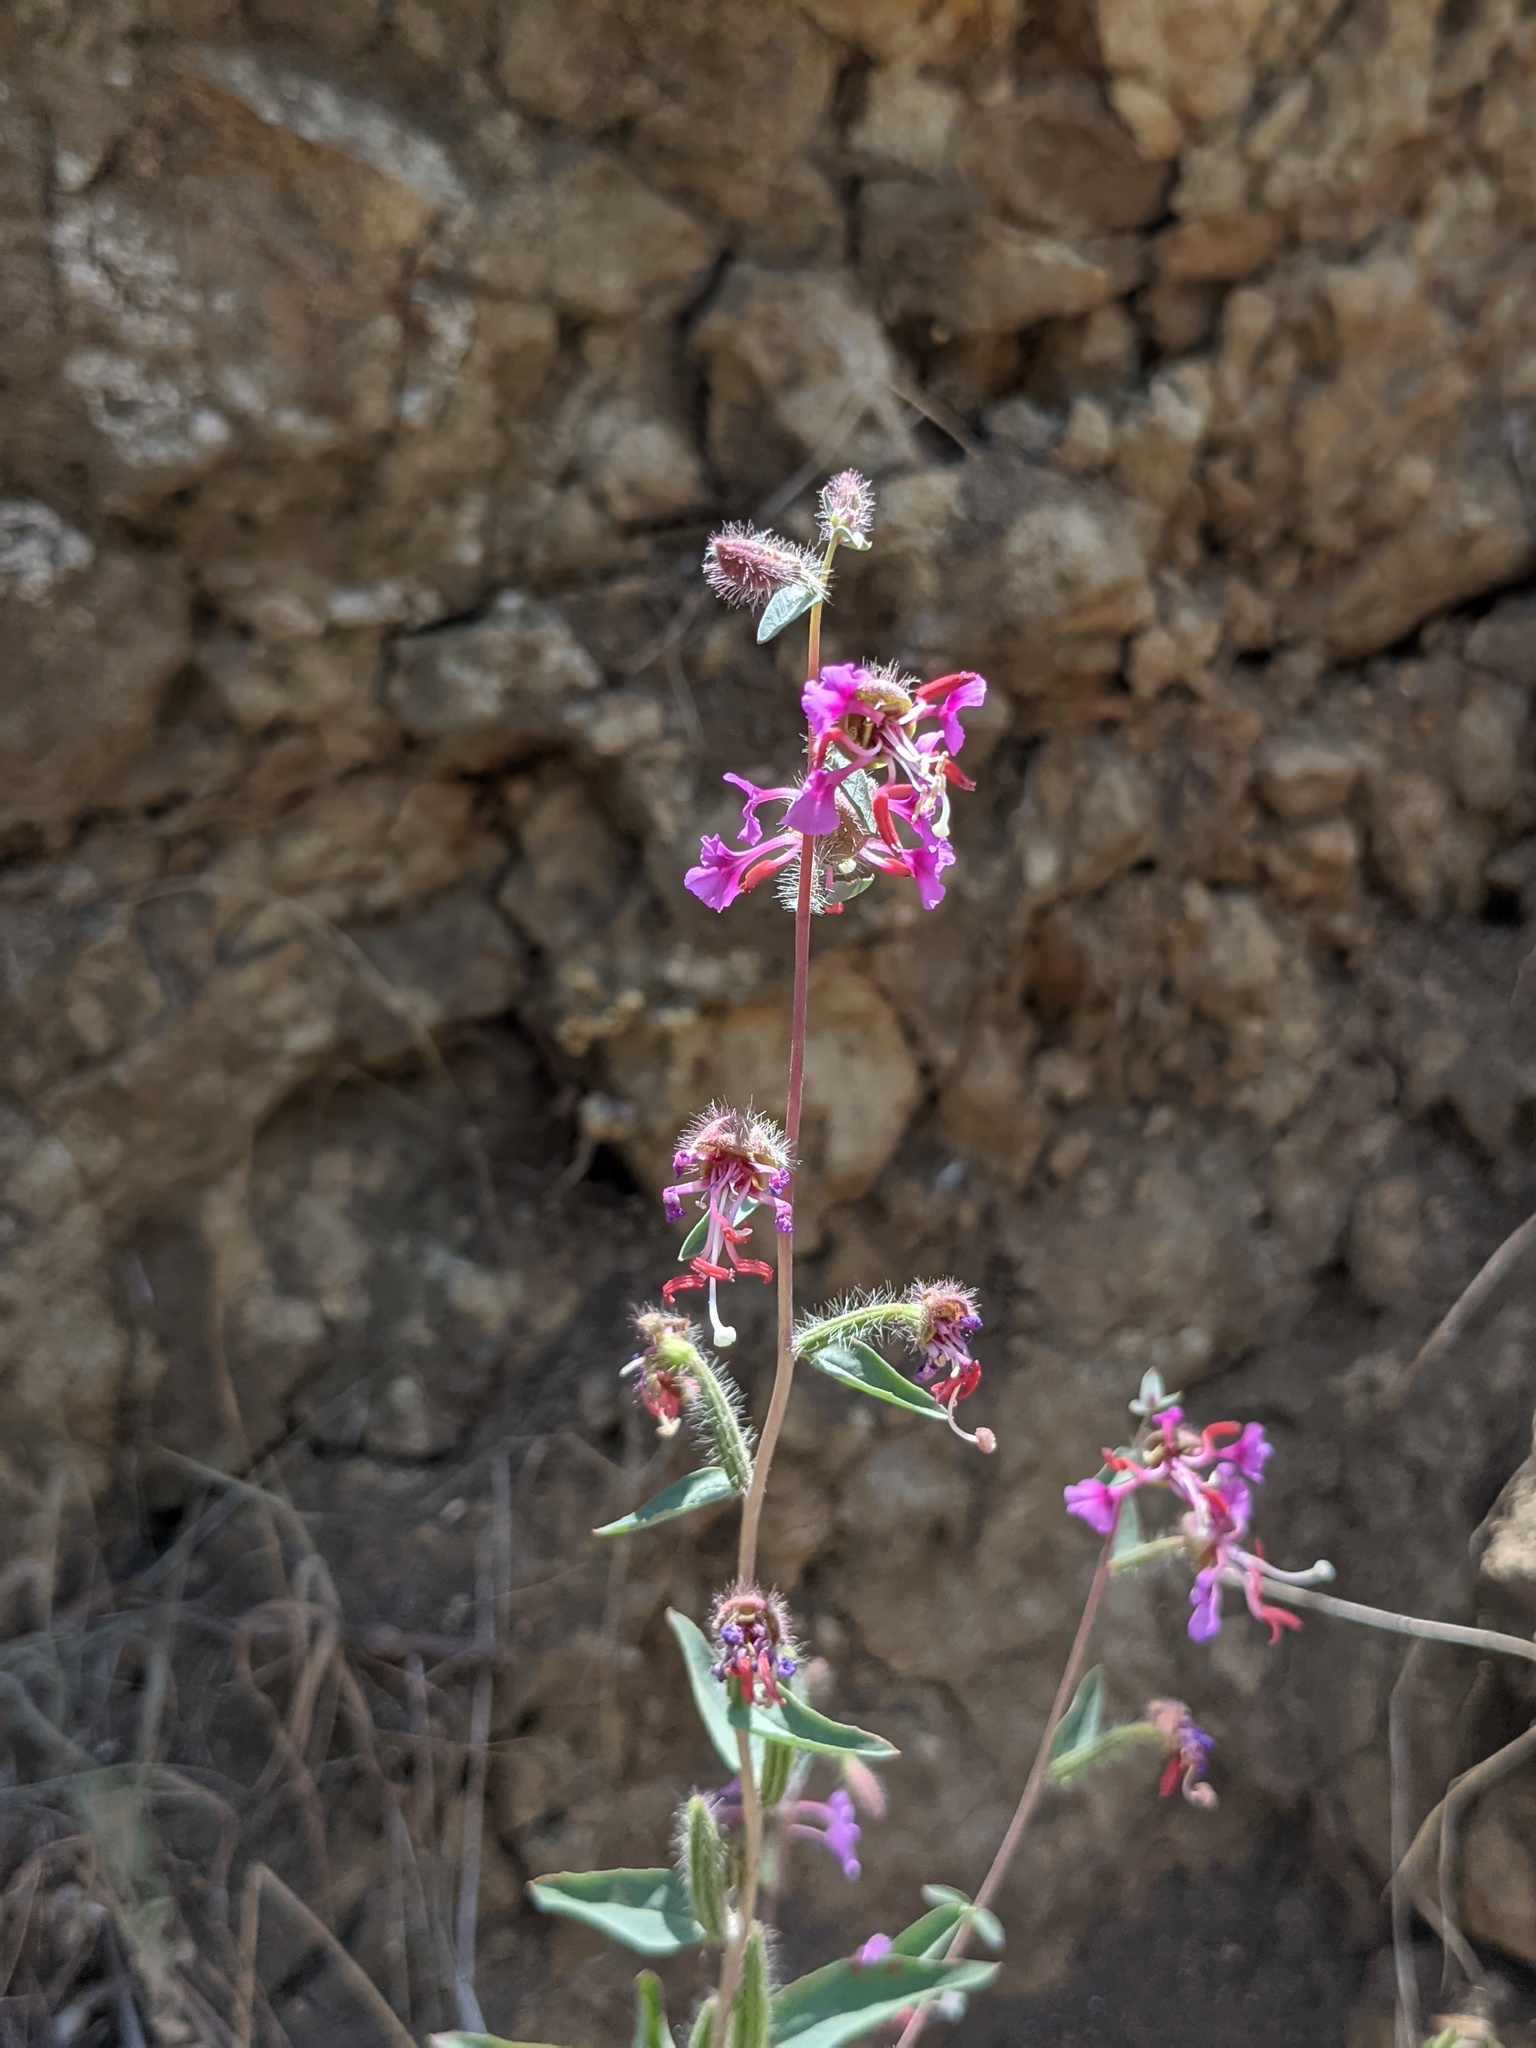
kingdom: Plantae
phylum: Tracheophyta
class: Magnoliopsida
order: Myrtales
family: Onagraceae
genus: Clarkia
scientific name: Clarkia unguiculata
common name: Clarkia
